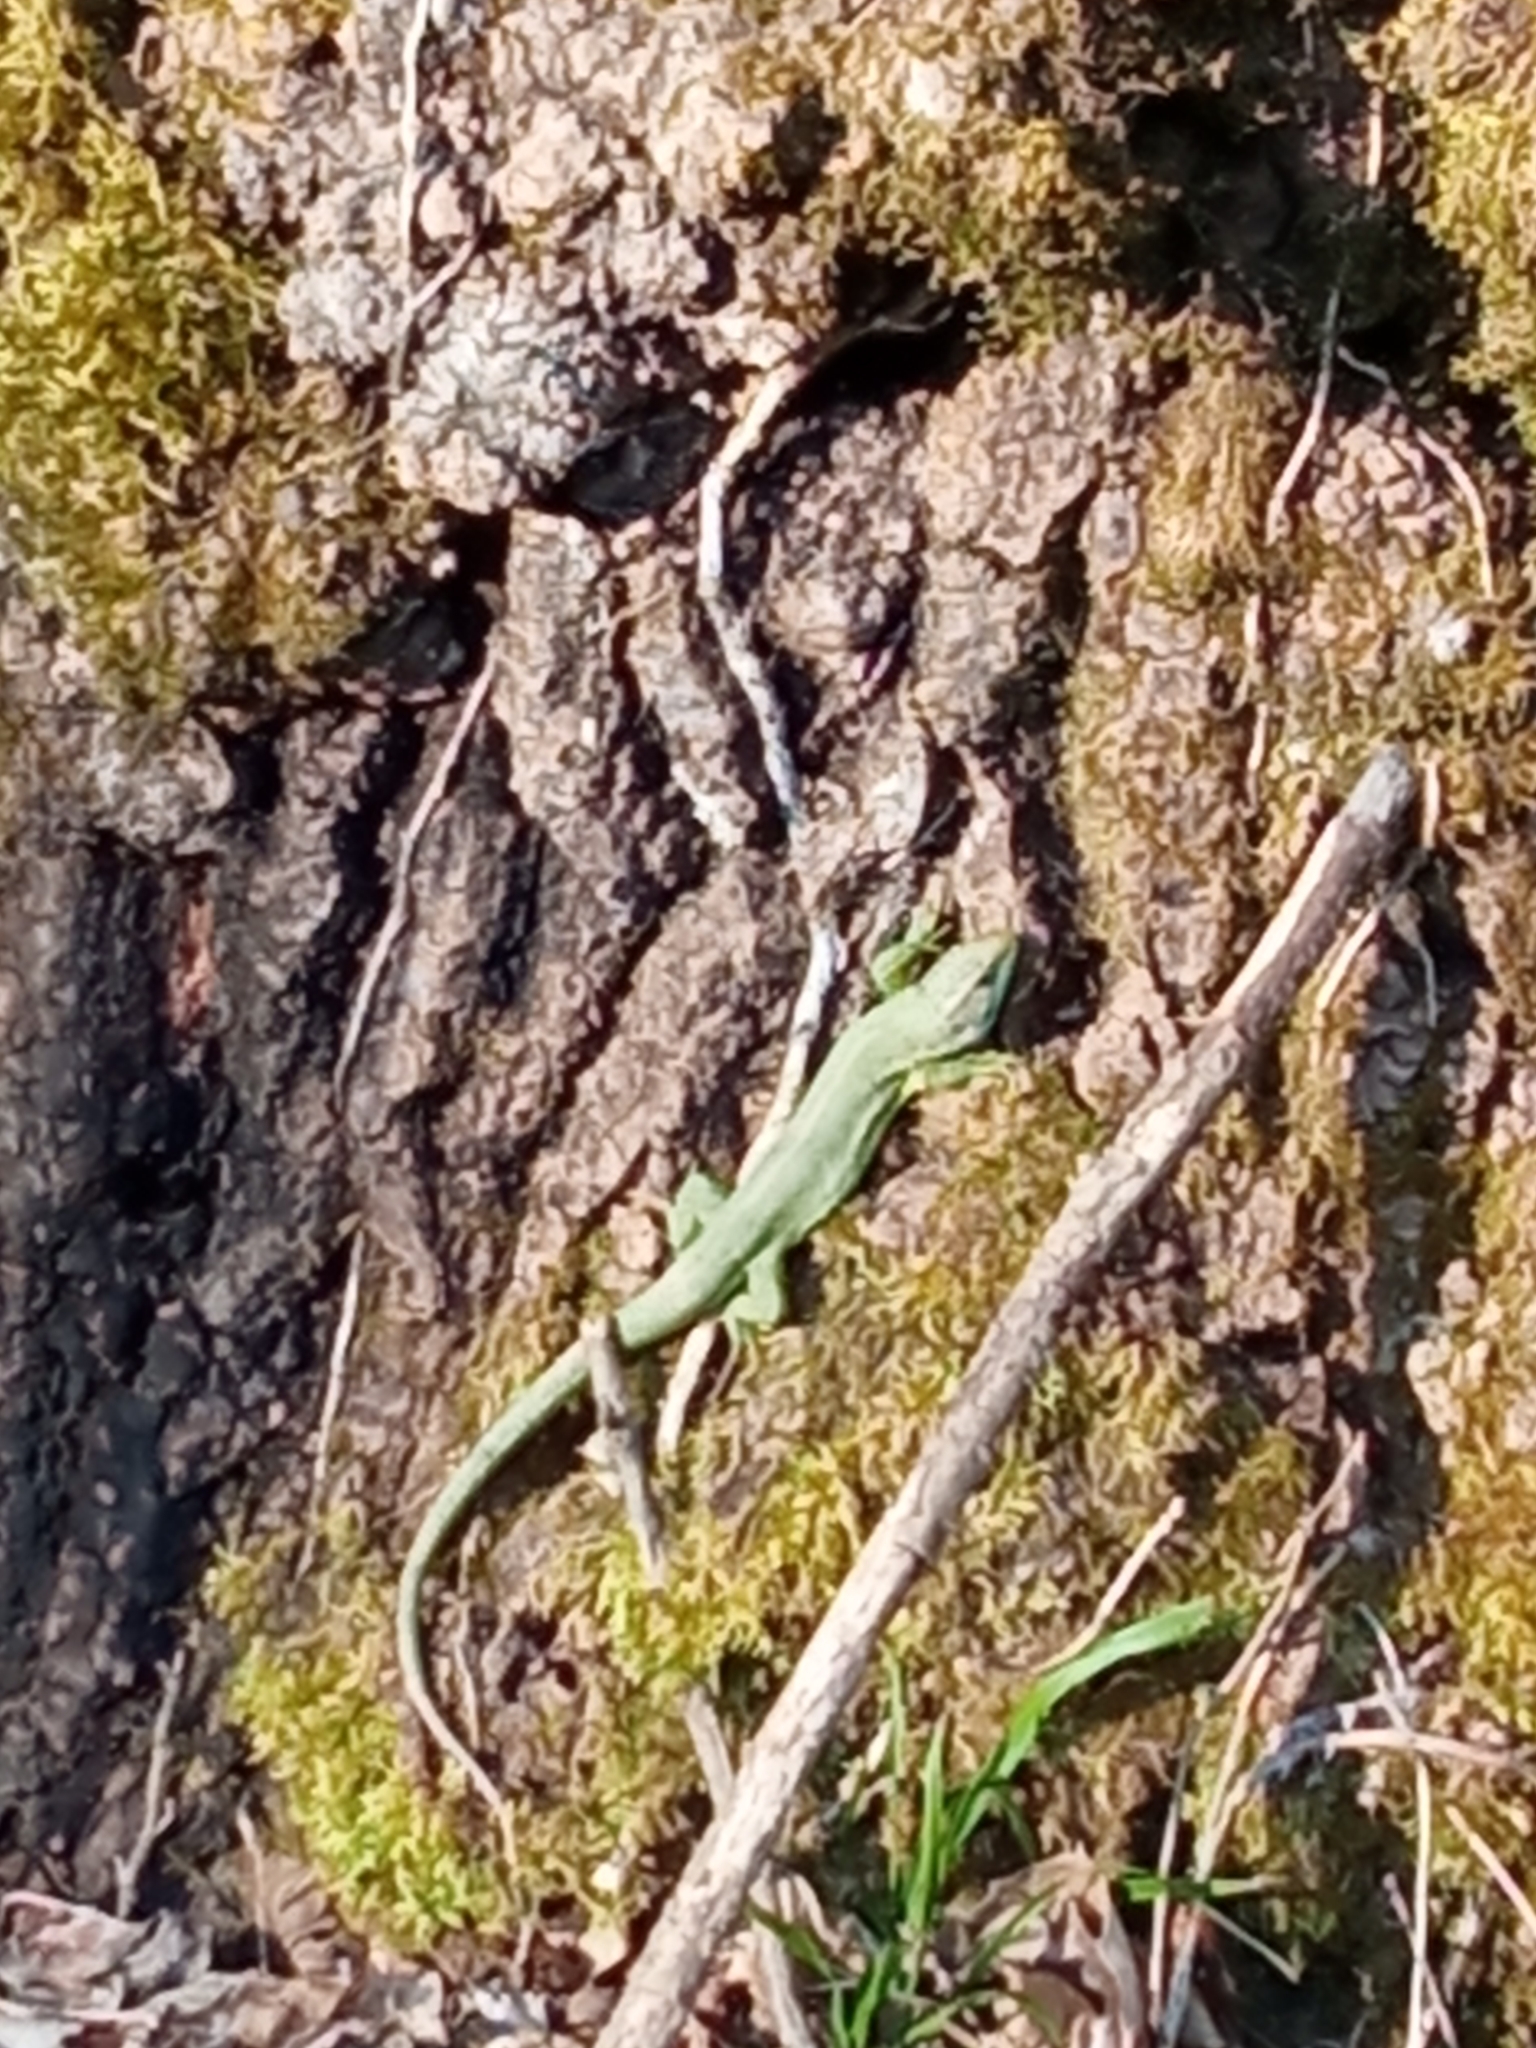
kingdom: Animalia
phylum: Chordata
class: Squamata
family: Lacertidae
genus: Lacerta
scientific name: Lacerta bilineata
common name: Western green lizard
